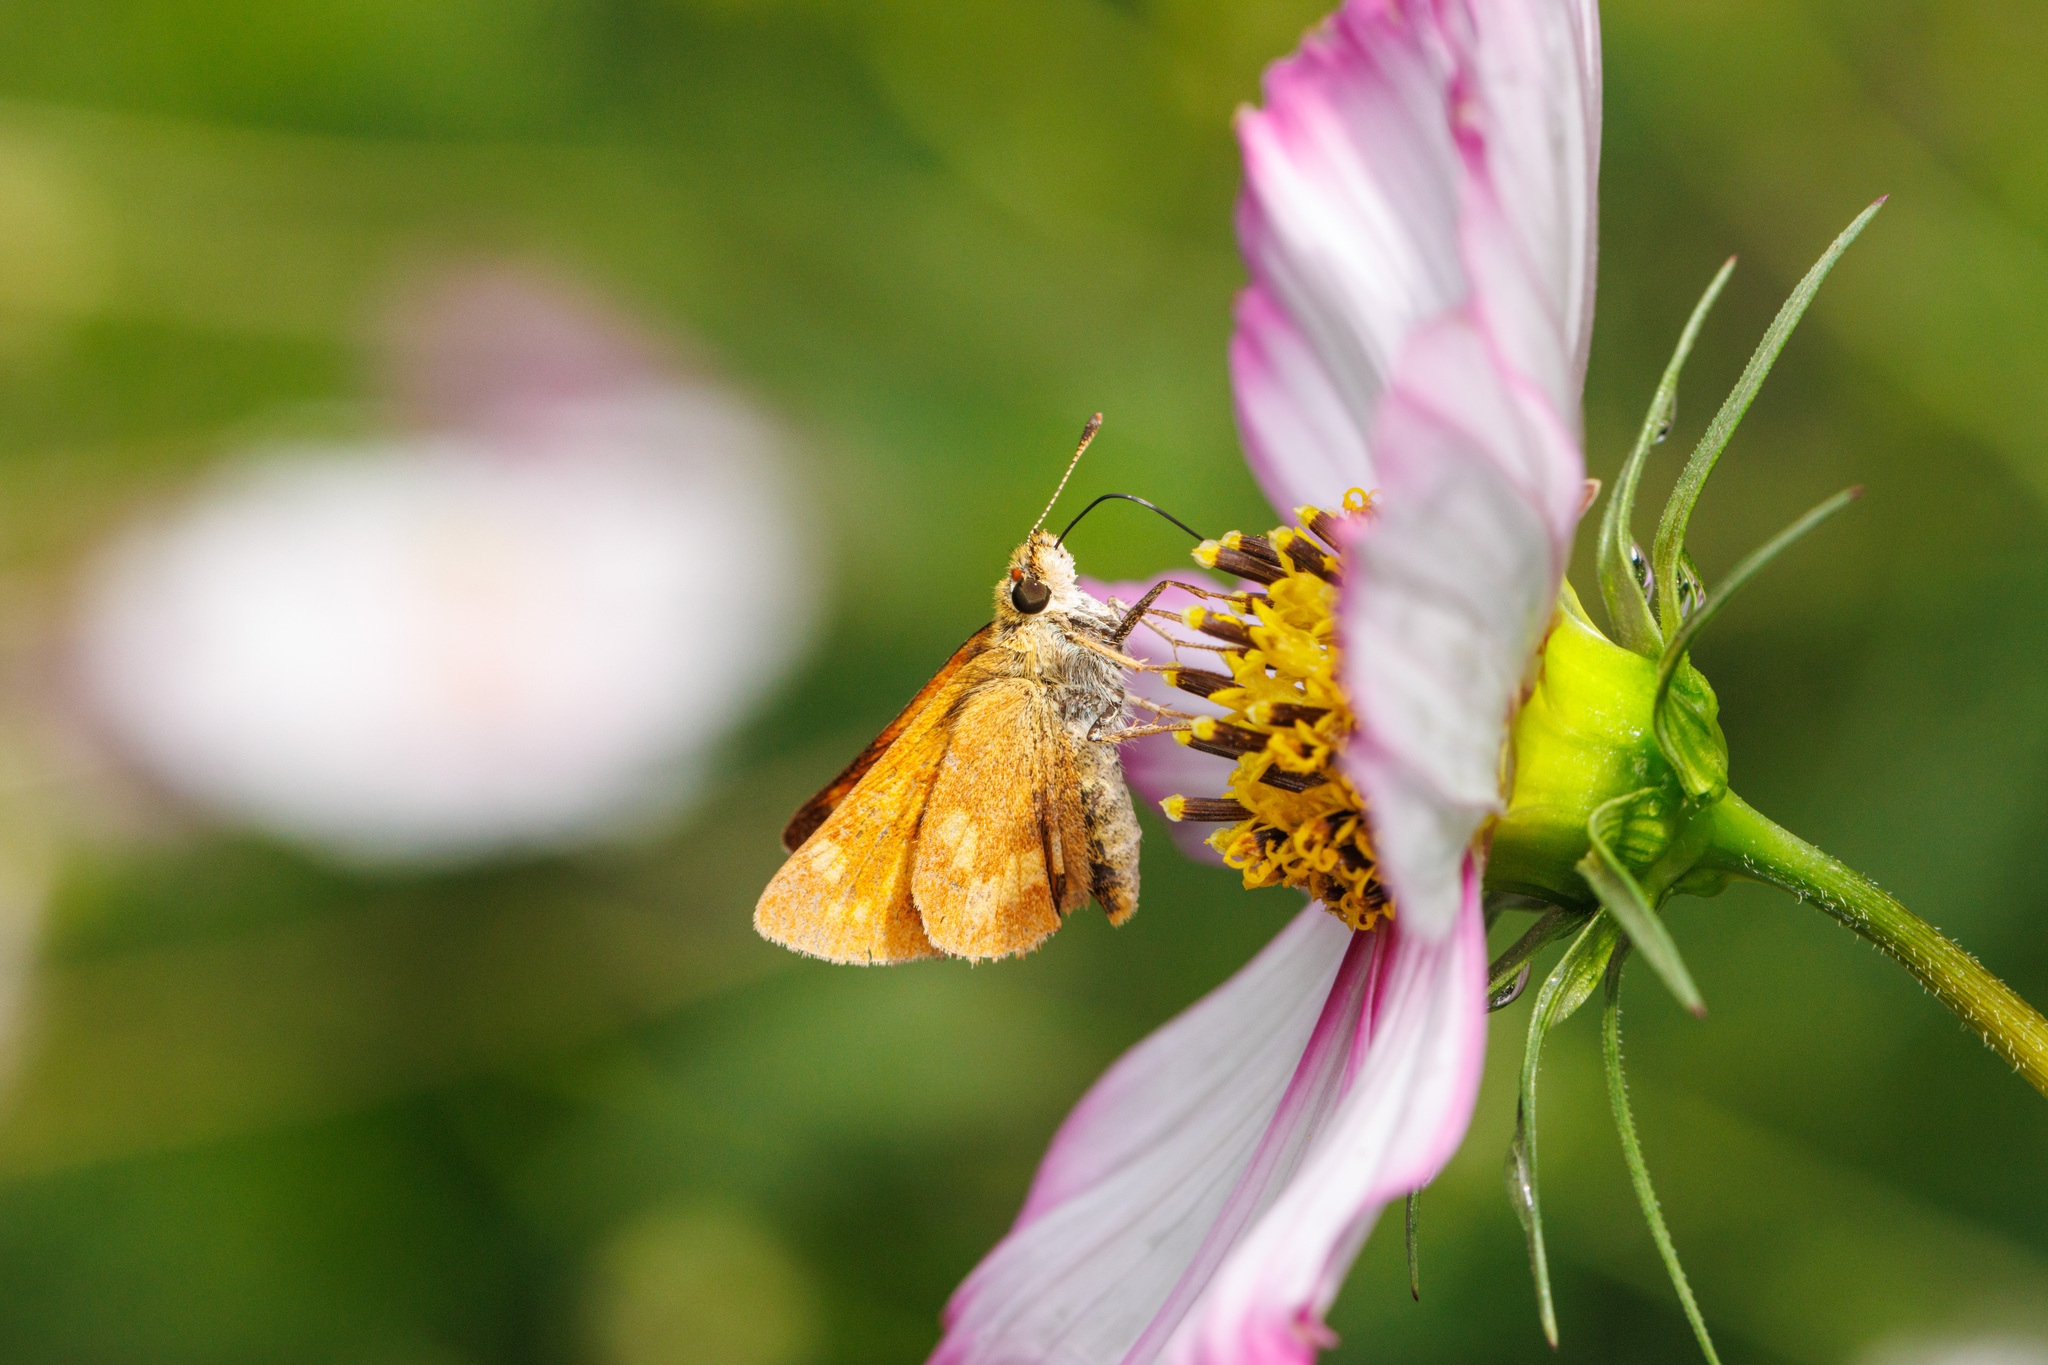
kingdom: Animalia
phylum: Arthropoda
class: Insecta
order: Lepidoptera
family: Hesperiidae
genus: Ochlodes
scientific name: Ochlodes sylvanoides
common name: Woodland skipper
